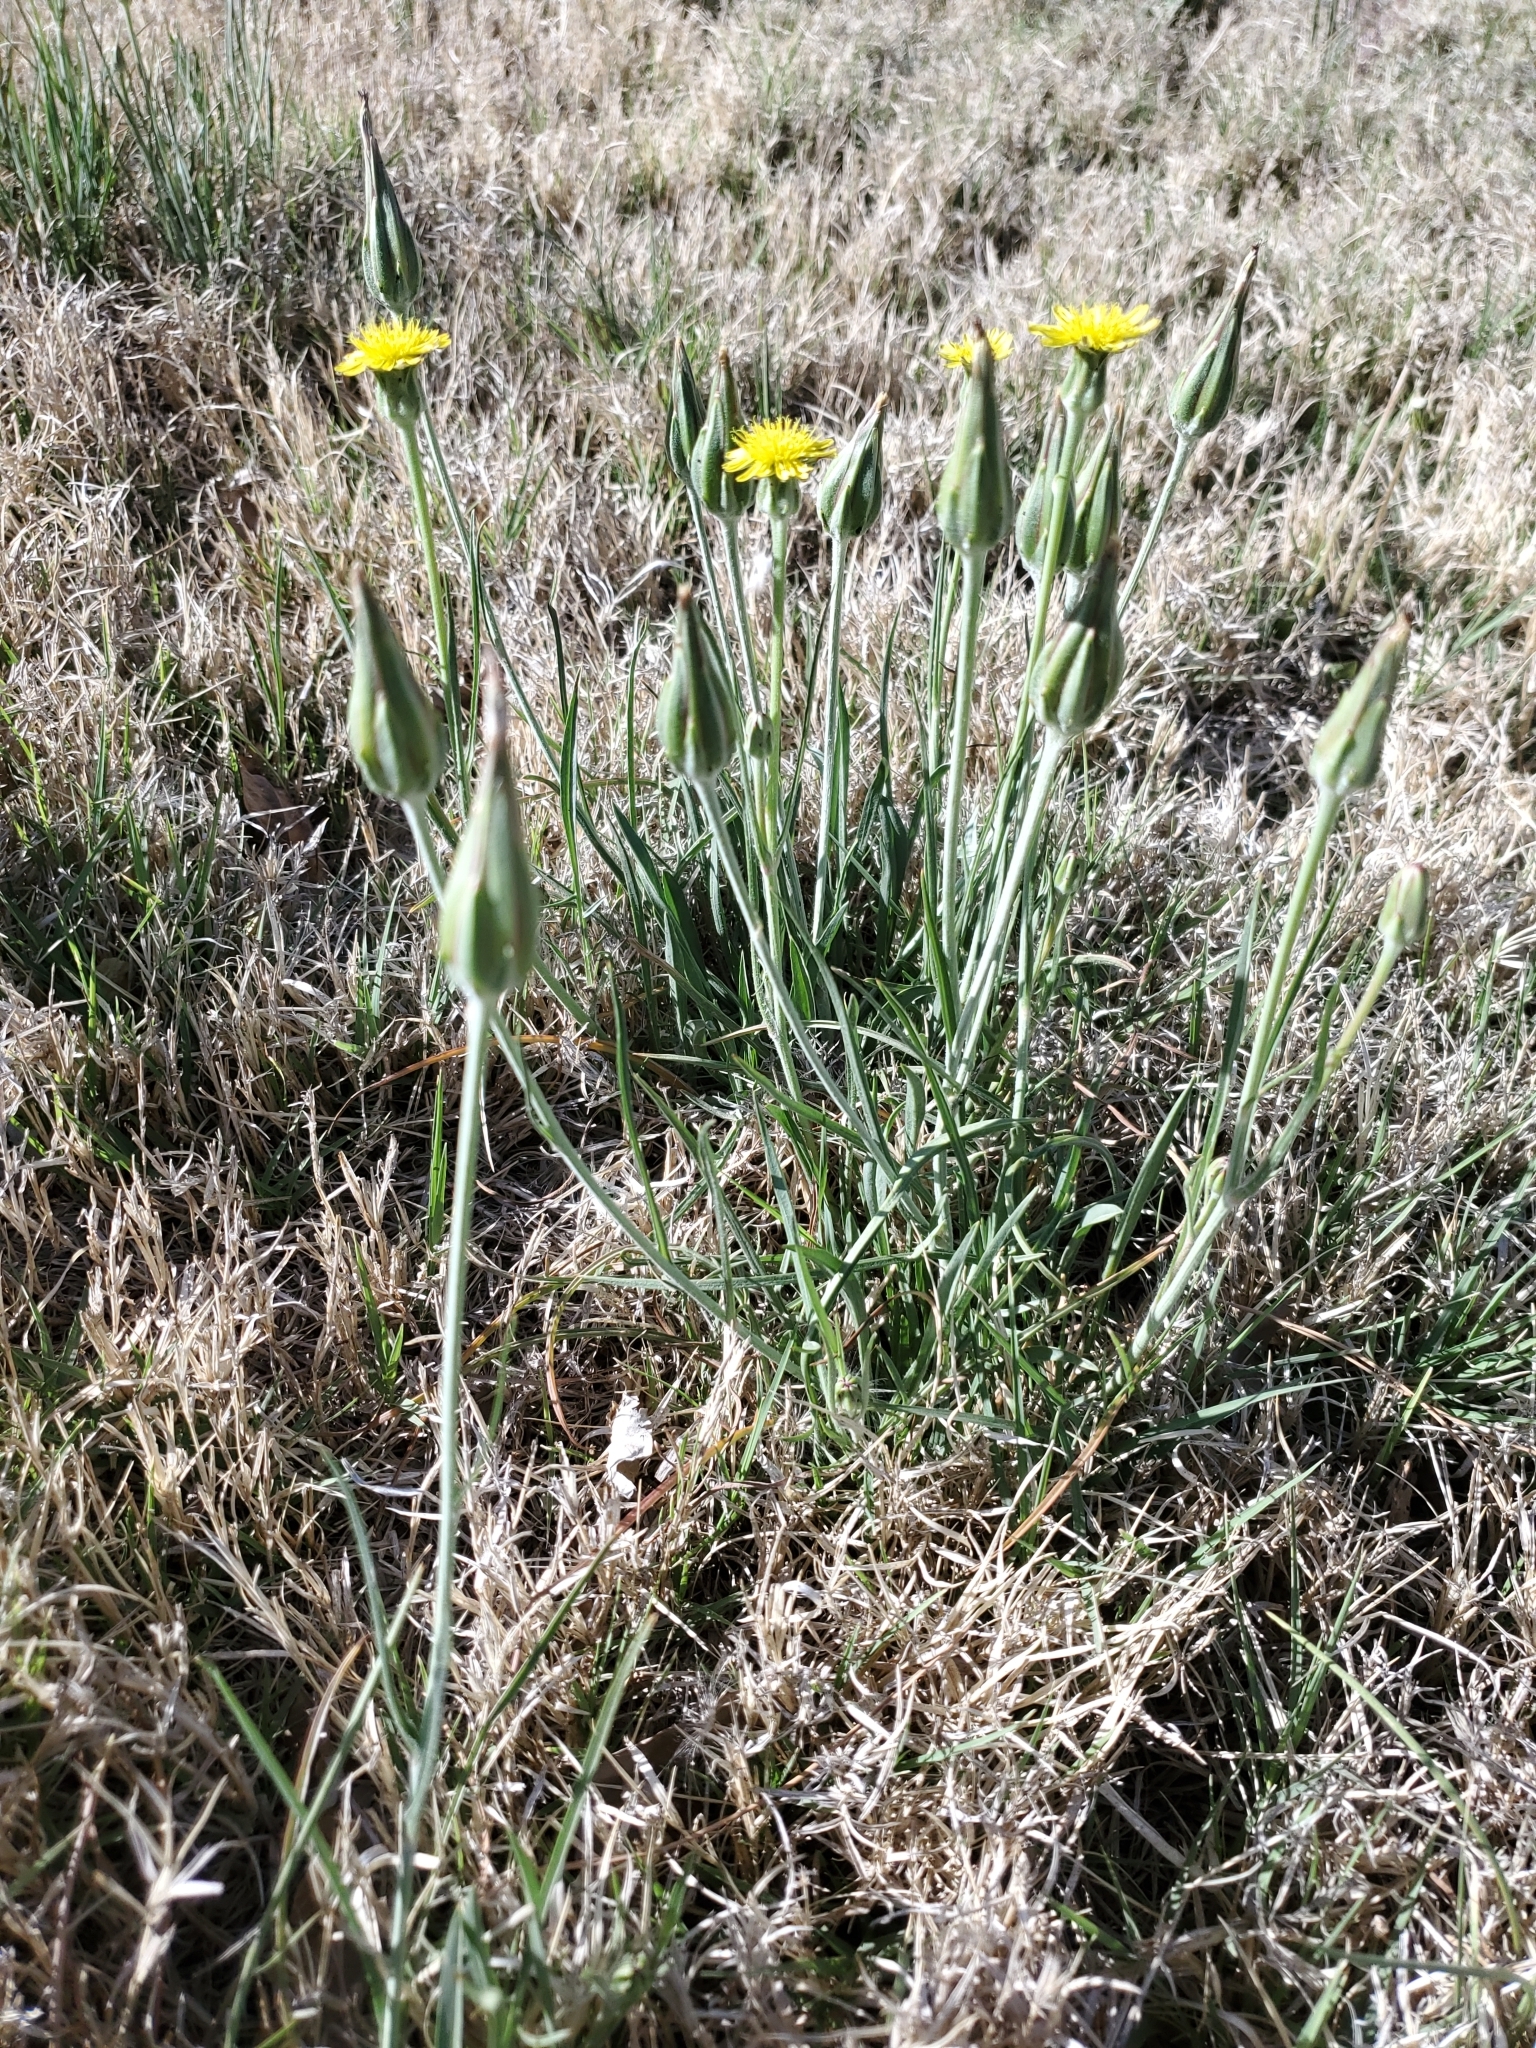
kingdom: Plantae
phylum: Tracheophyta
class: Magnoliopsida
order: Asterales
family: Asteraceae
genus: Scorzonera
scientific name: Scorzonera laciniata
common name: Cutleaf vipergrass
